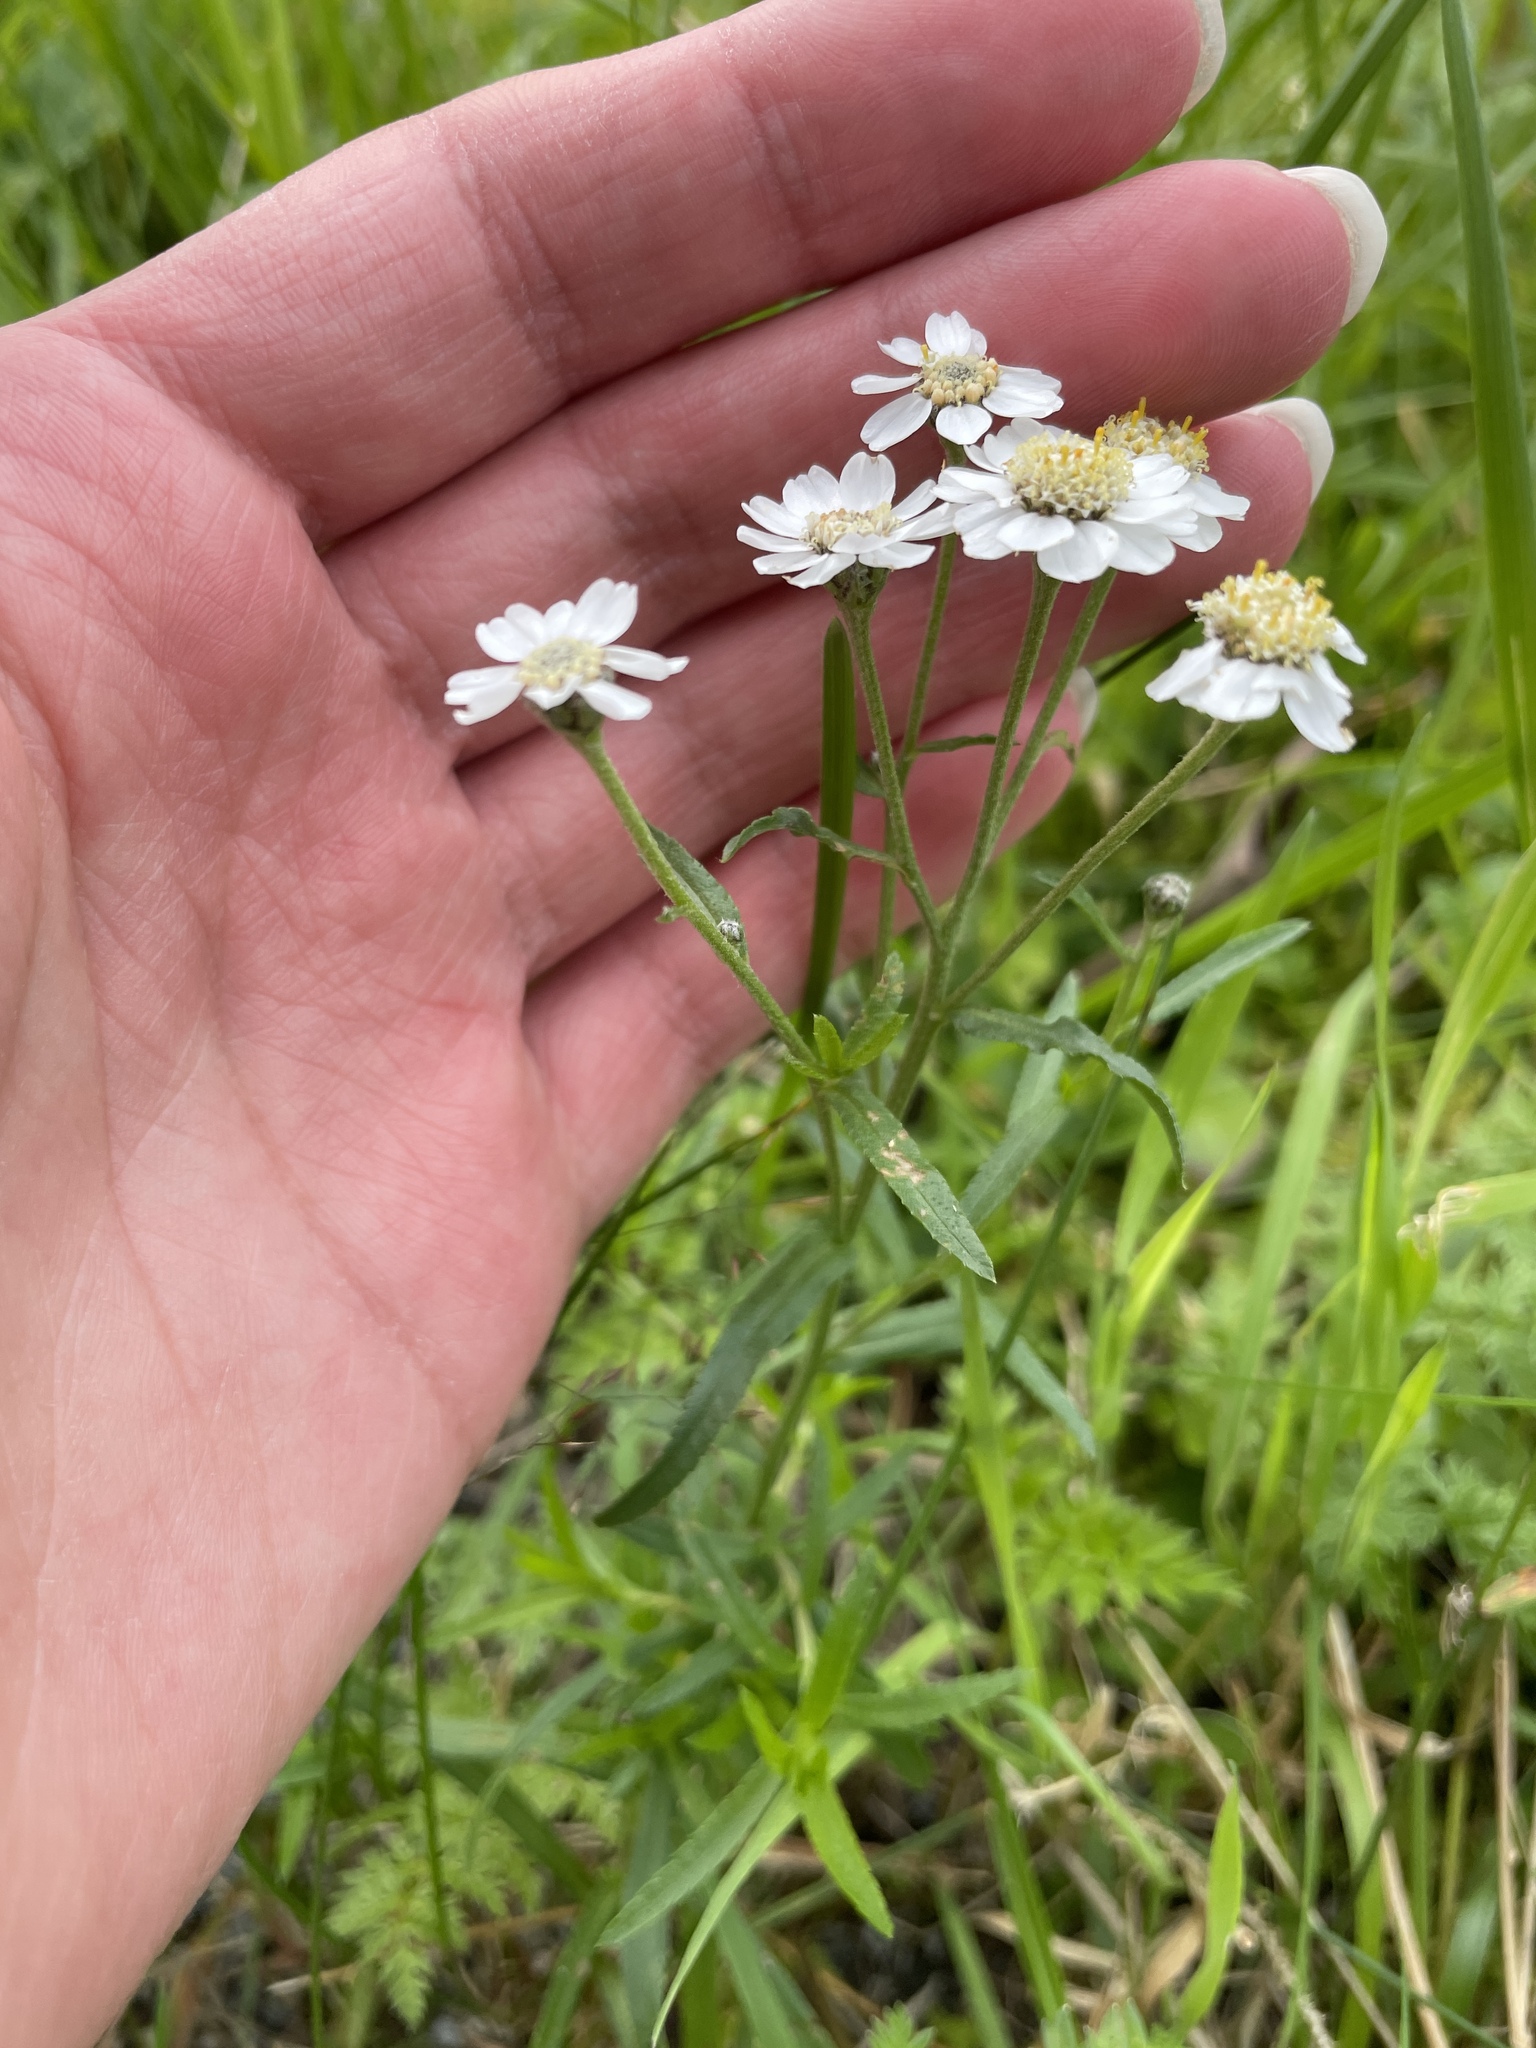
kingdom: Plantae
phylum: Tracheophyta
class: Magnoliopsida
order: Asterales
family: Asteraceae
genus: Achillea
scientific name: Achillea ptarmica
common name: Sneezeweed
